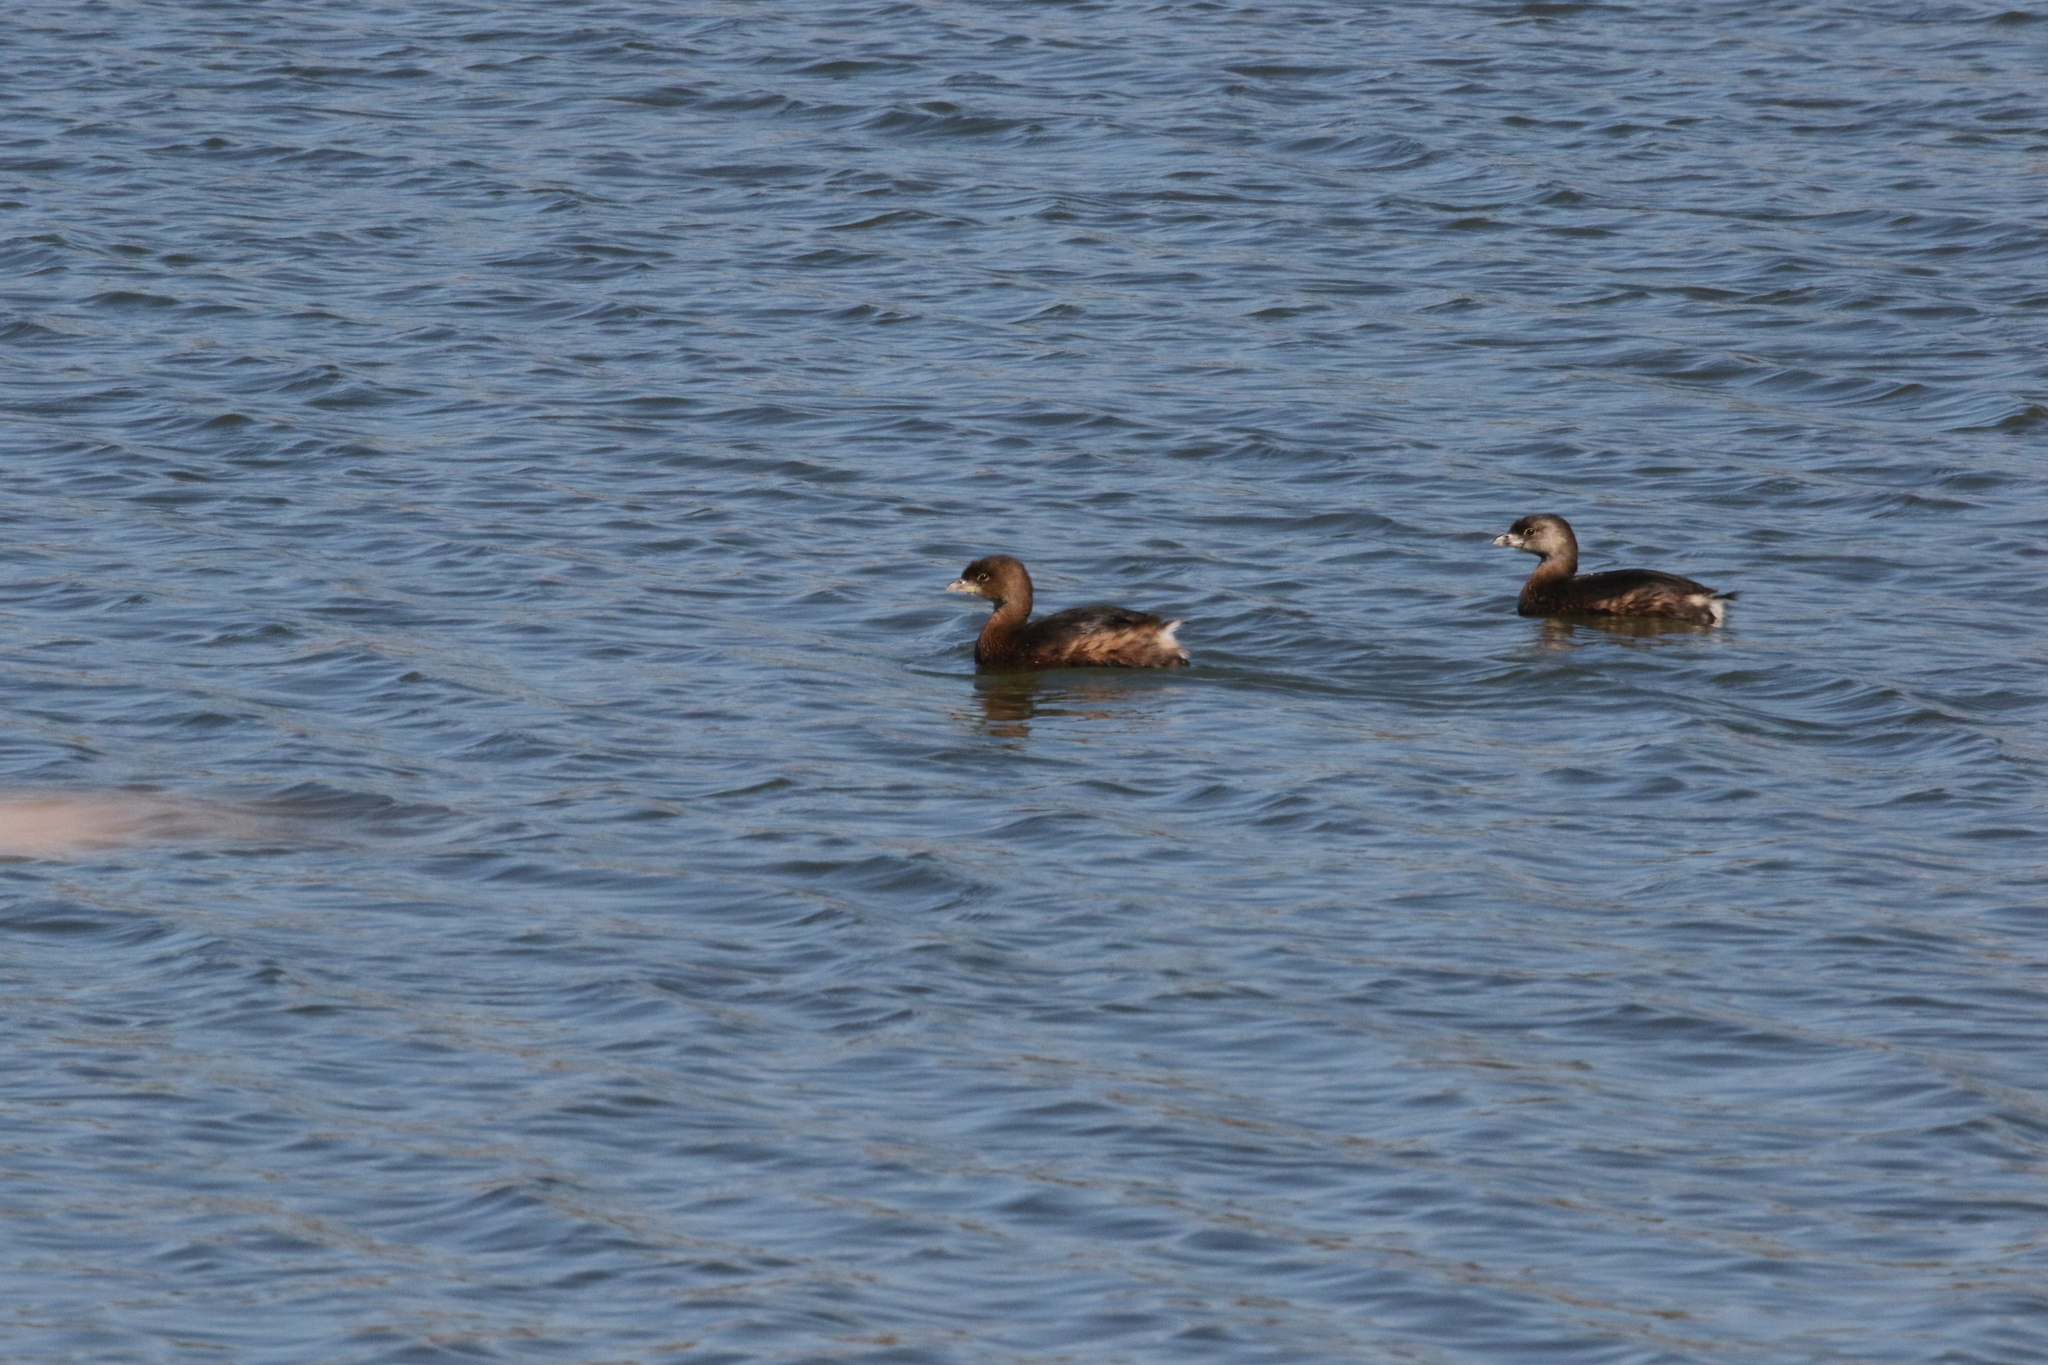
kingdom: Animalia
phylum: Chordata
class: Aves
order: Podicipediformes
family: Podicipedidae
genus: Podilymbus
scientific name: Podilymbus podiceps
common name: Pied-billed grebe
